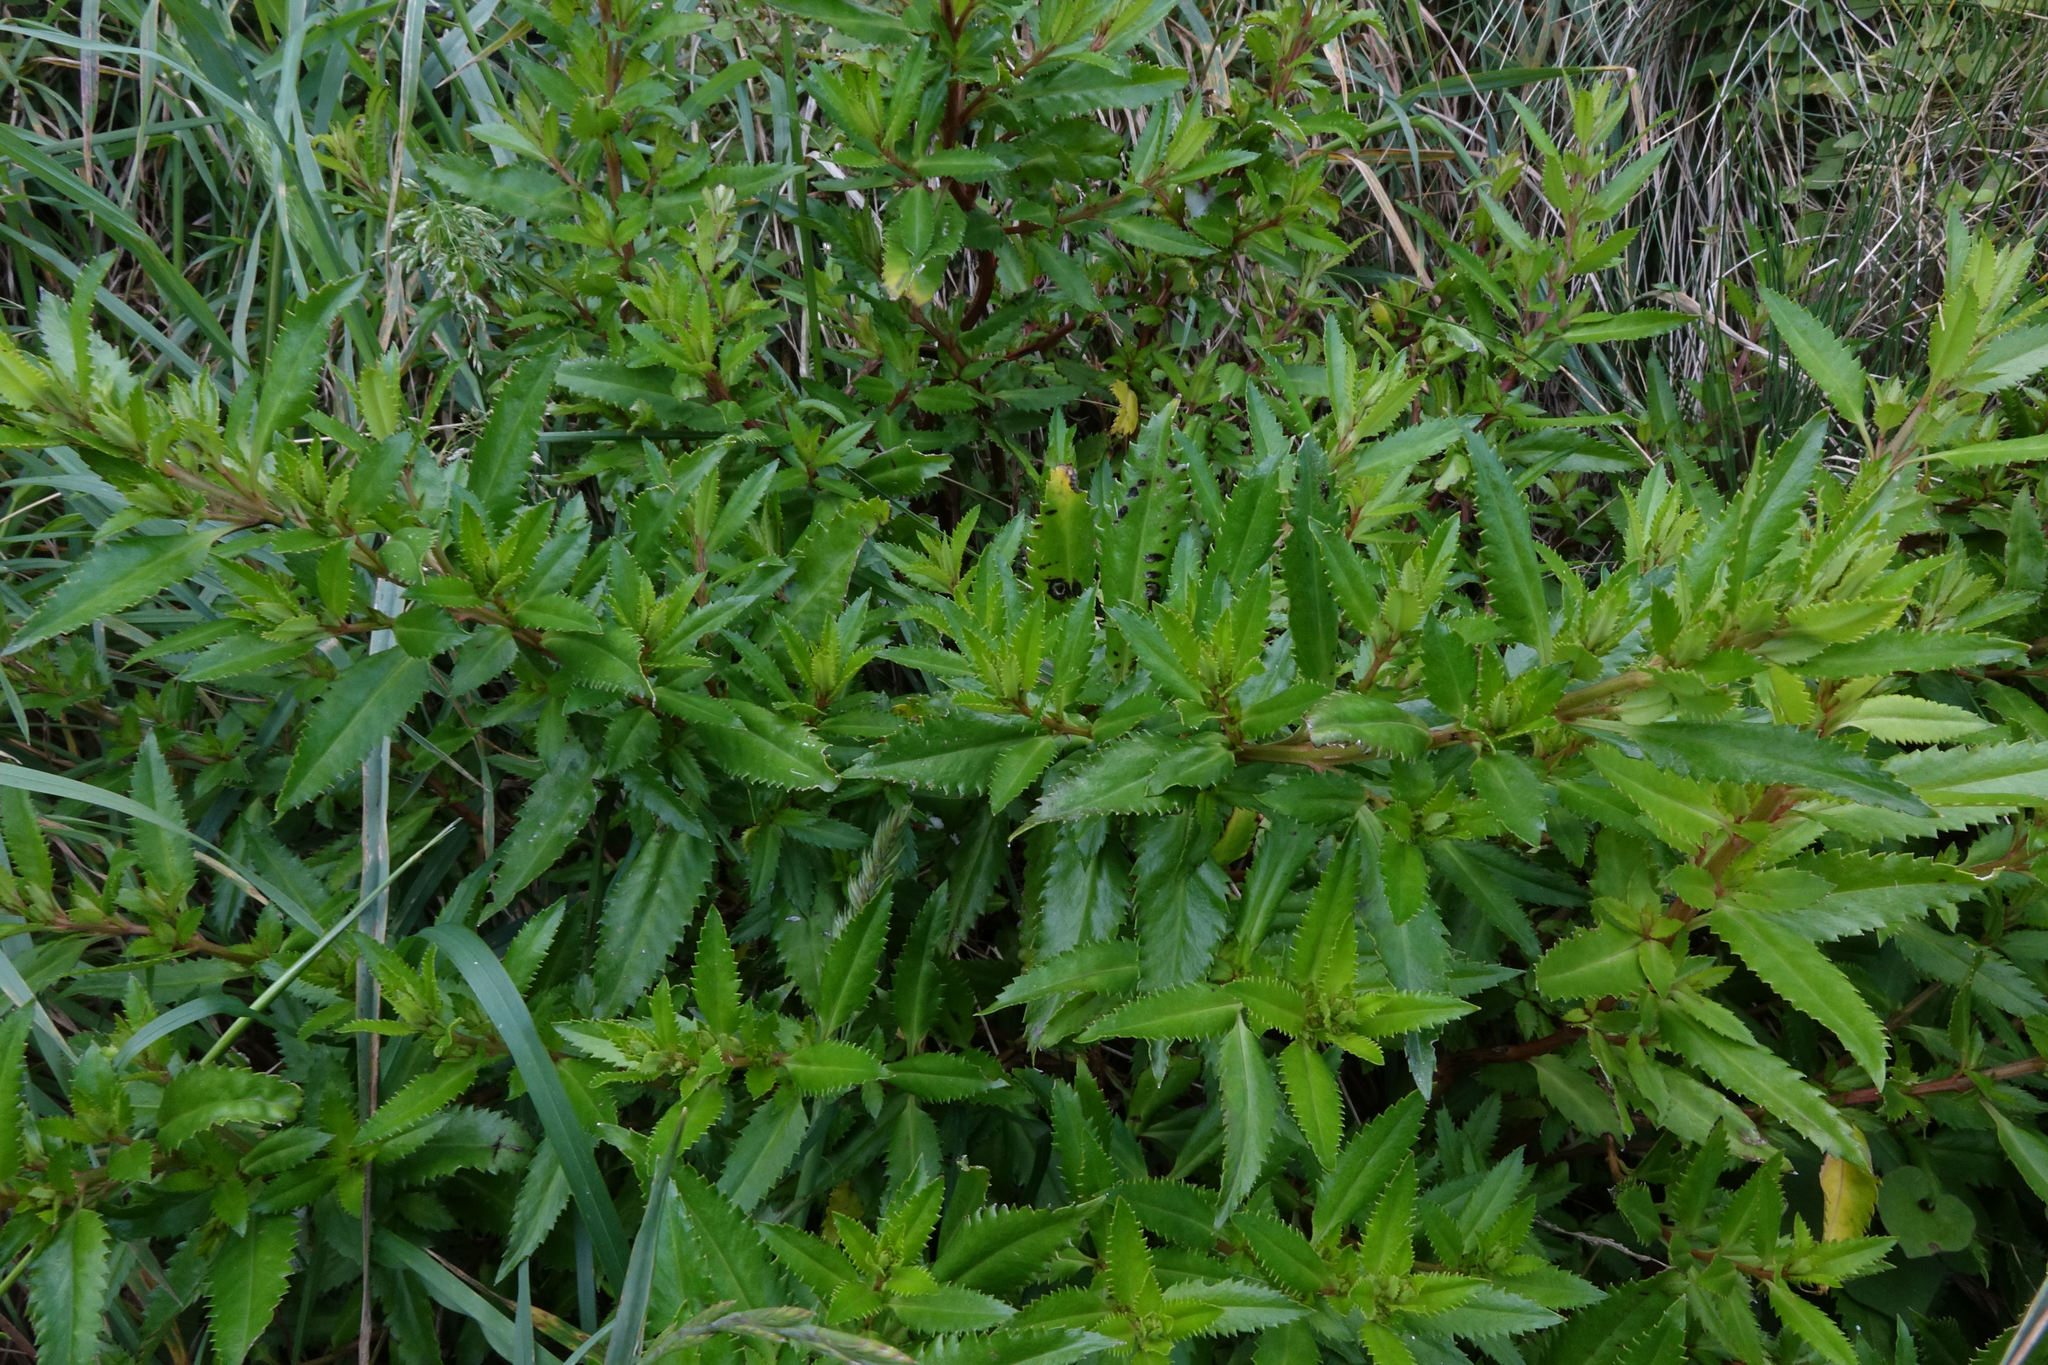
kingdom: Plantae
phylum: Tracheophyta
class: Magnoliopsida
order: Saxifragales
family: Haloragaceae
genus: Haloragis
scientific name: Haloragis erecta
